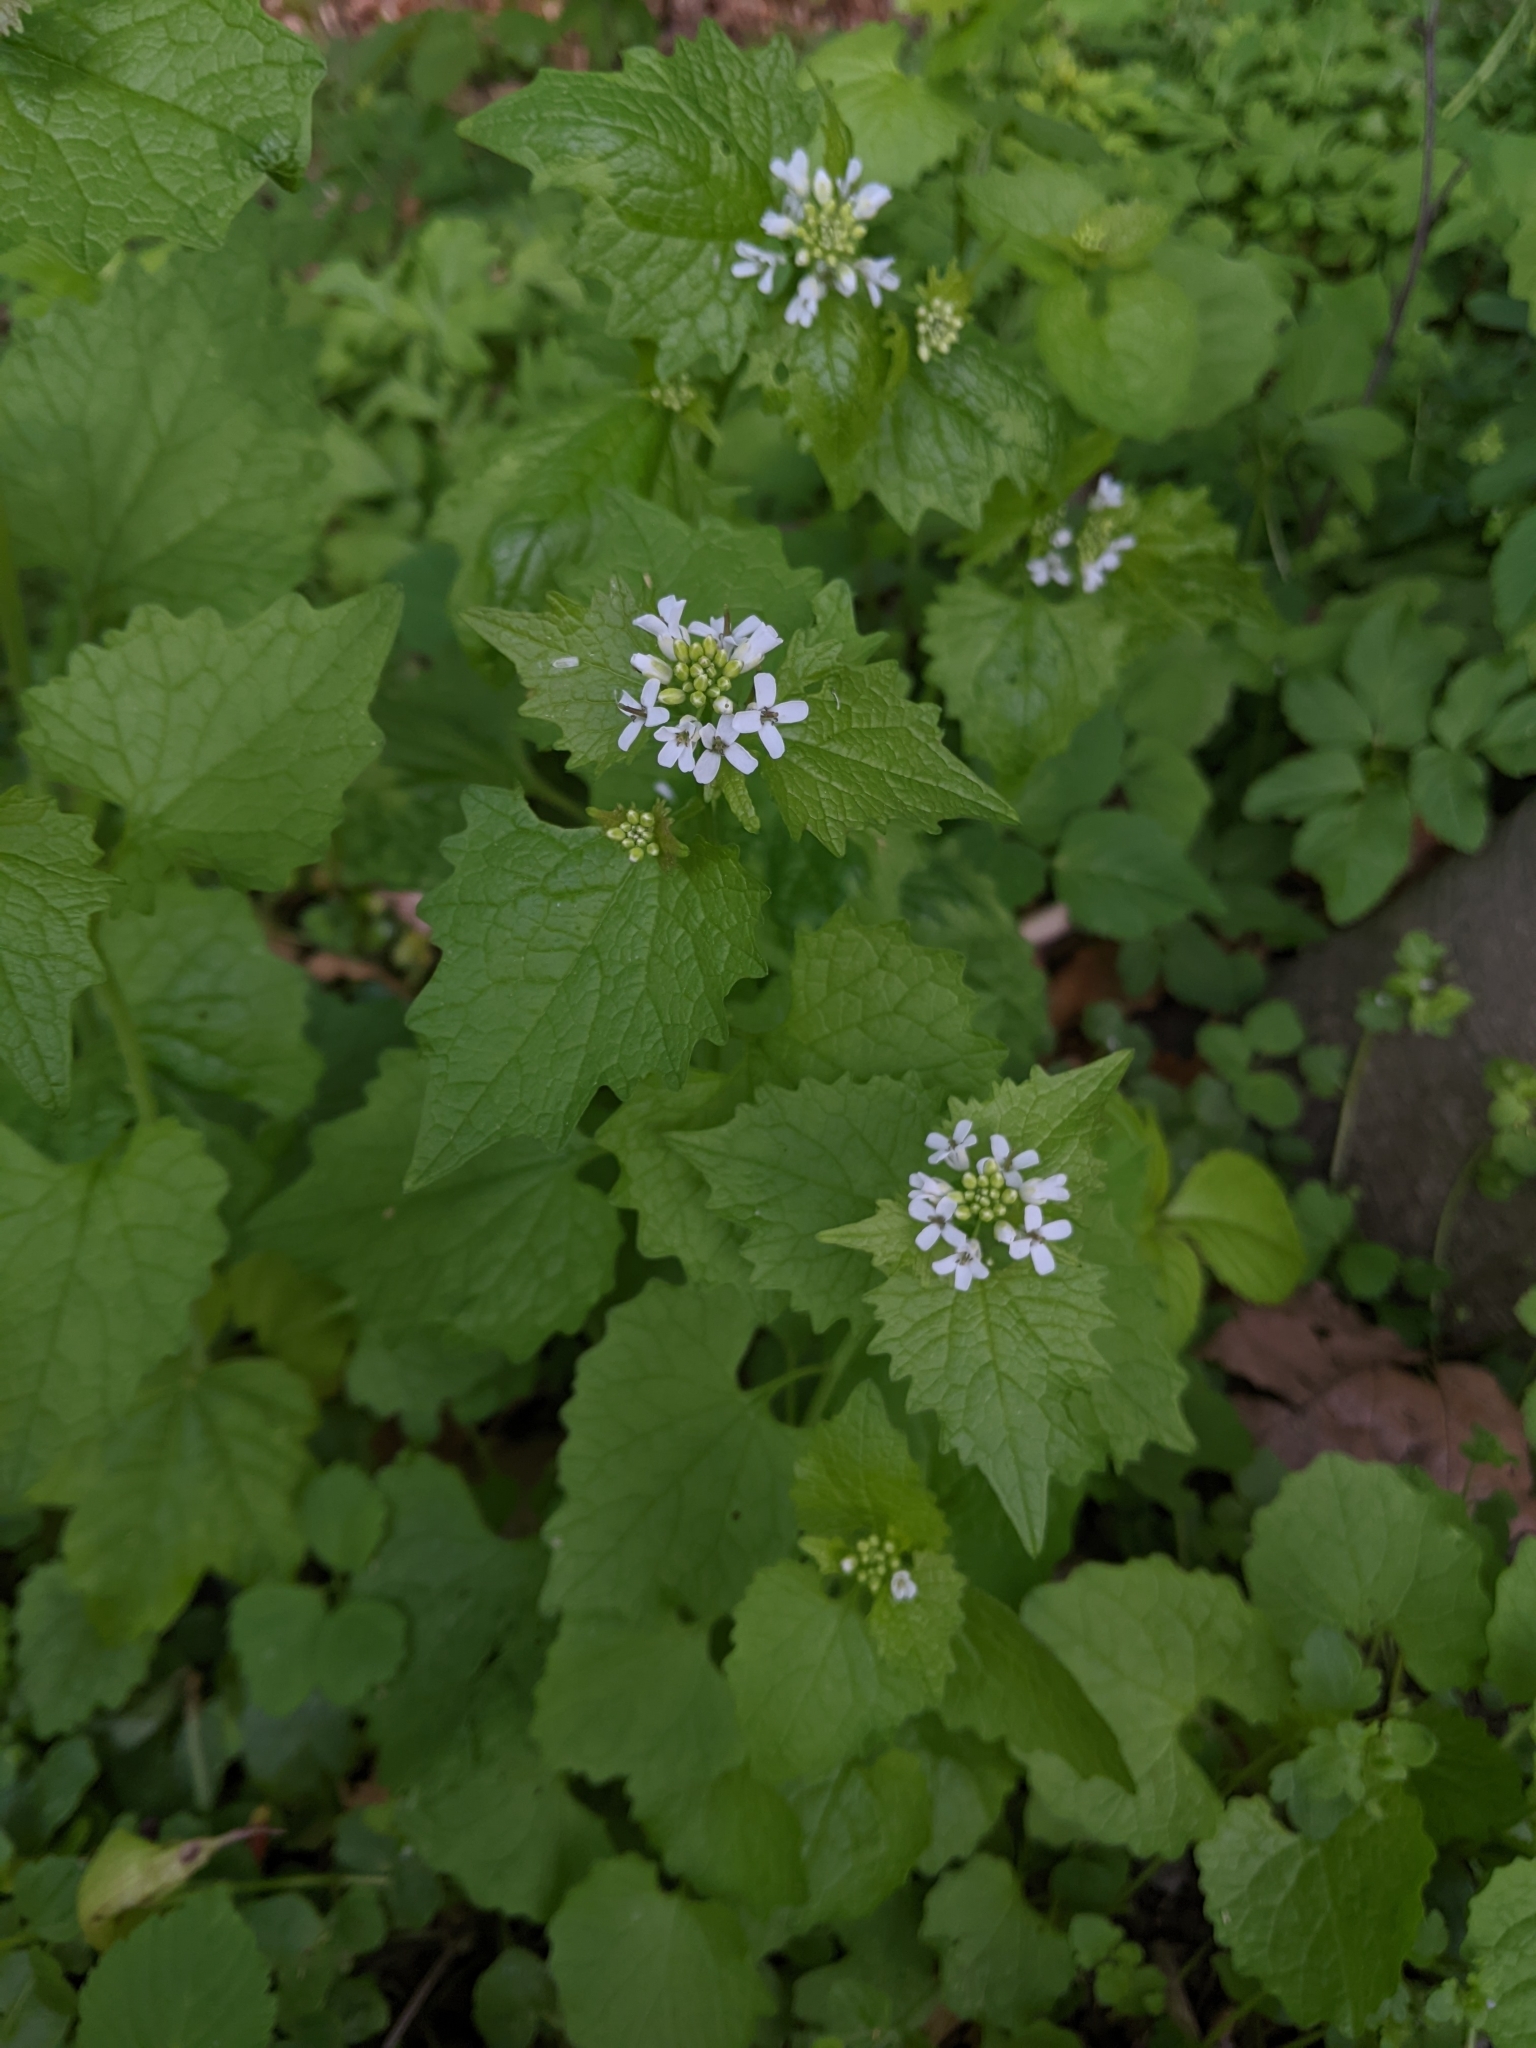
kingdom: Plantae
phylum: Tracheophyta
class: Magnoliopsida
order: Brassicales
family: Brassicaceae
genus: Alliaria
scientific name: Alliaria petiolata
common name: Garlic mustard
